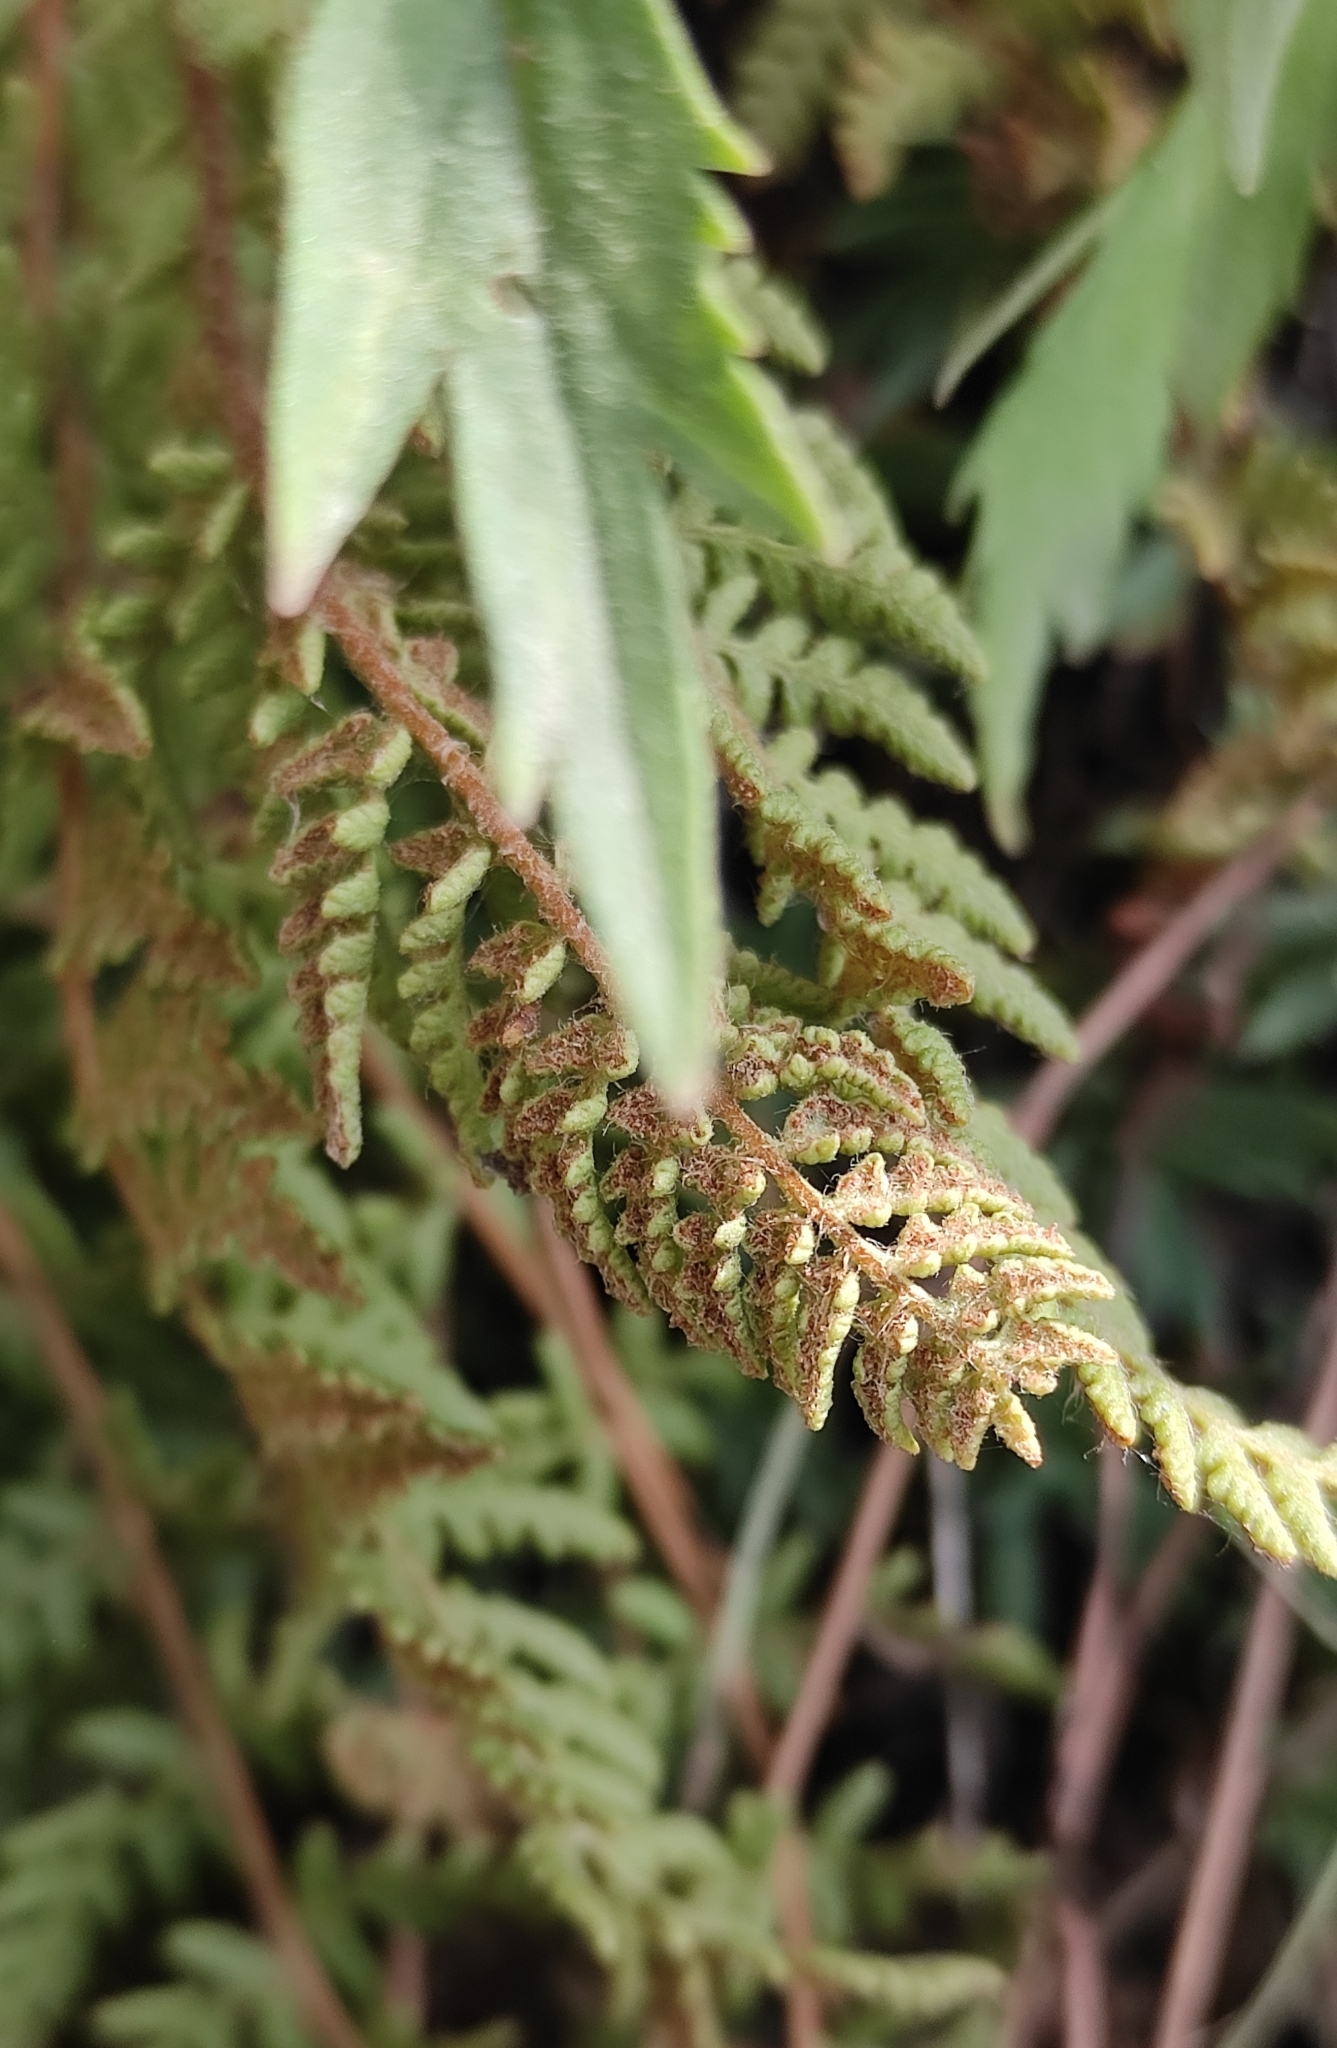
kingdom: Plantae
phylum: Tracheophyta
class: Polypodiopsida
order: Polypodiales
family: Woodsiaceae
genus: Woodsia
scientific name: Woodsia ilvensis
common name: Fragrant woodsia
